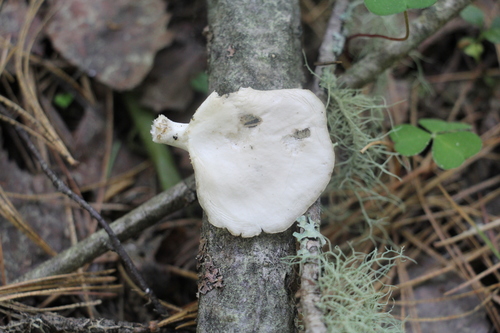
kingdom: Fungi
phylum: Basidiomycota
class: Agaricomycetes
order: Agaricales
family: Pleurotaceae
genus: Pleurotus
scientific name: Pleurotus pulmonarius
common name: Pale oyster
